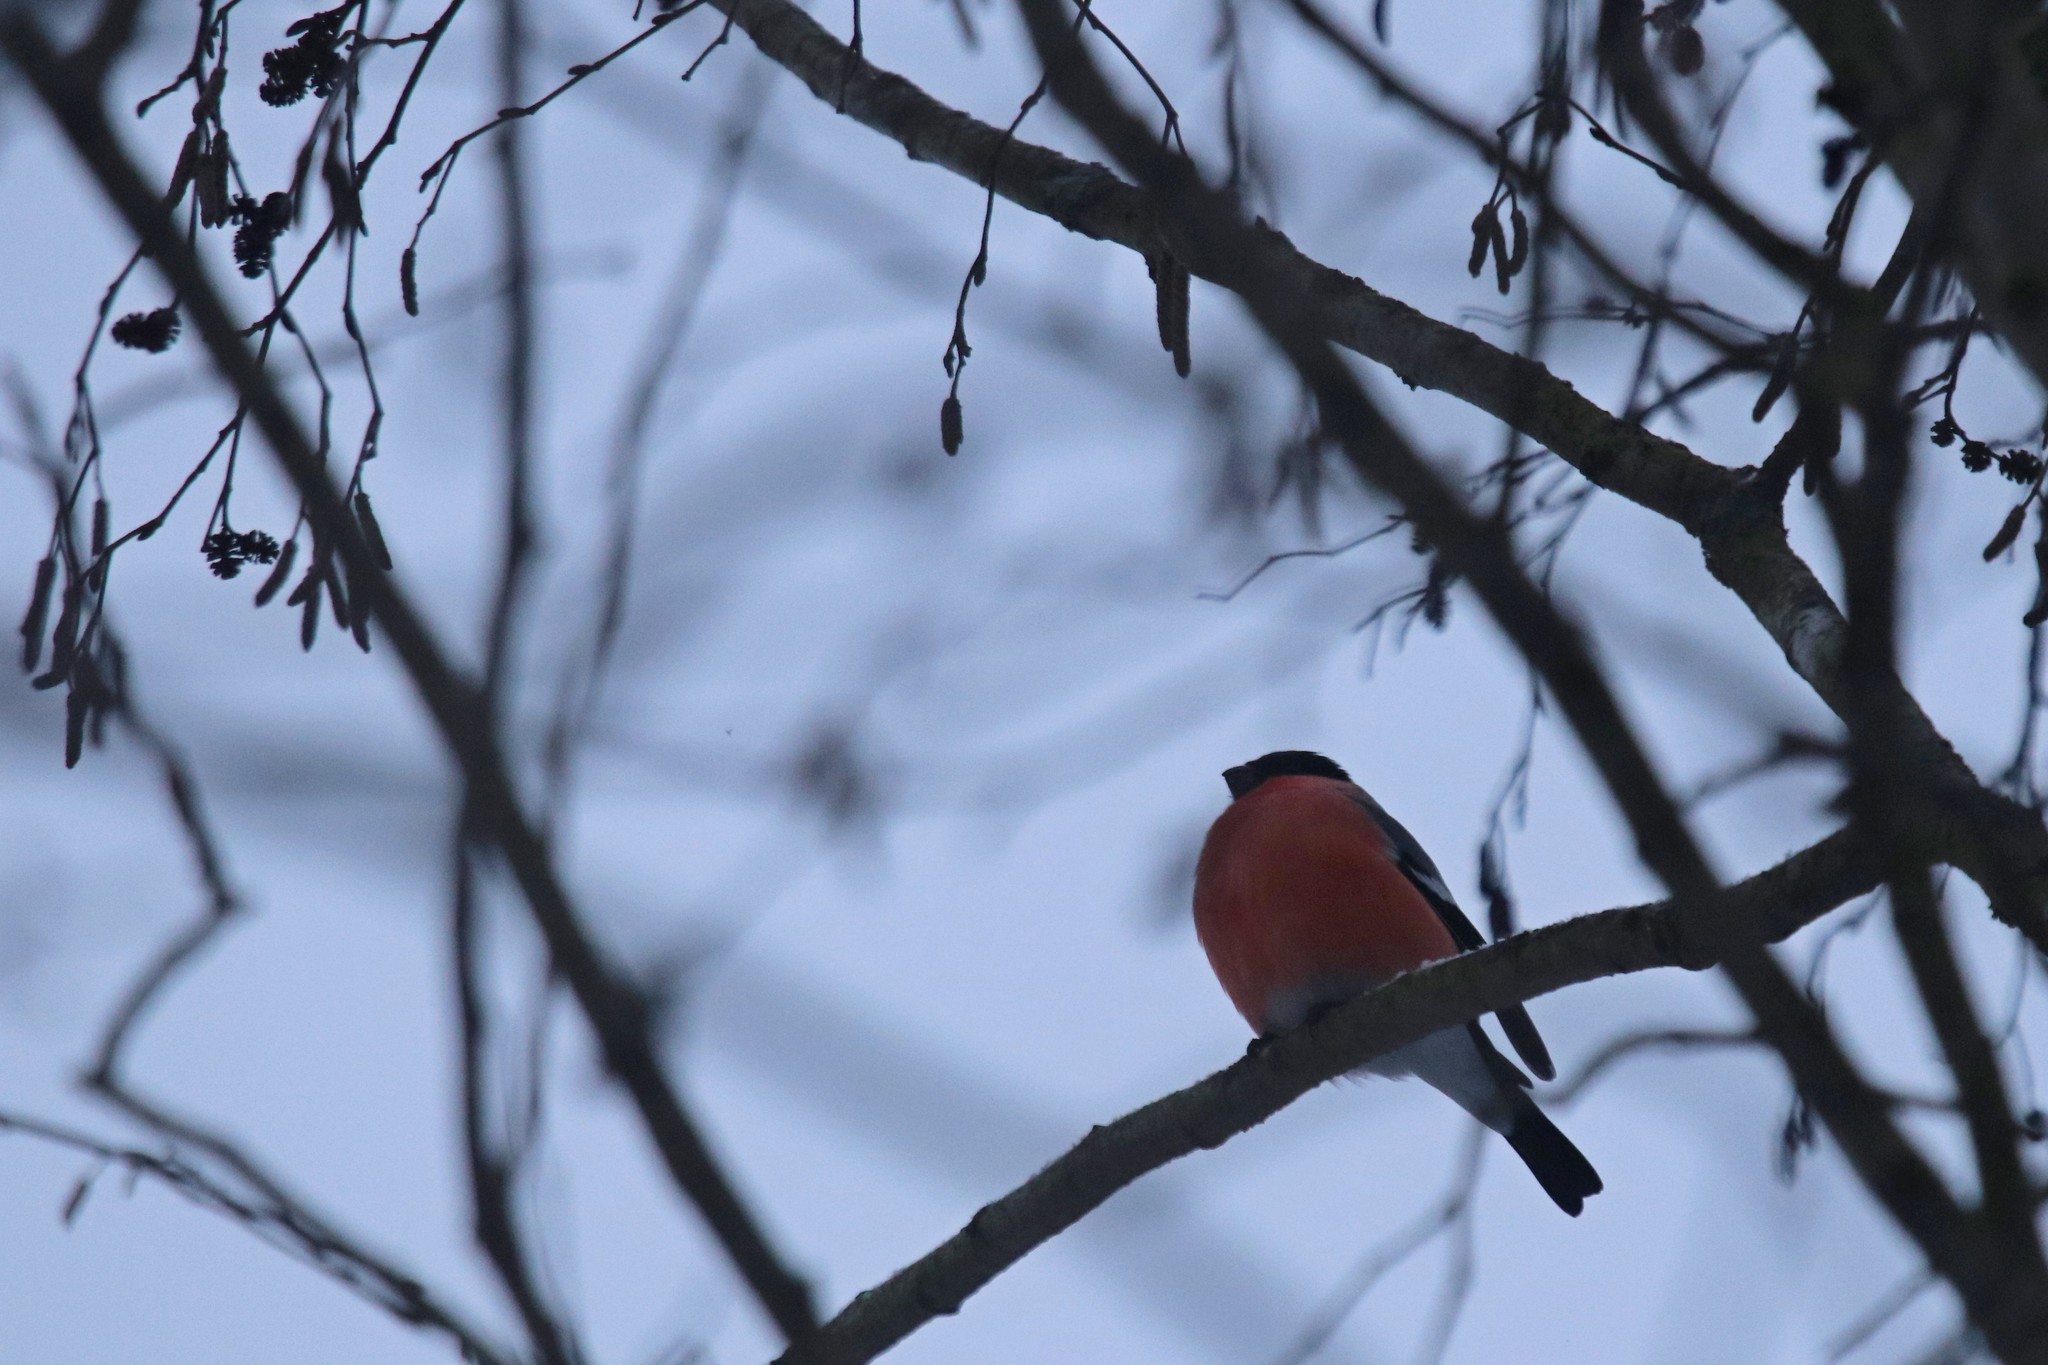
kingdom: Animalia
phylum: Chordata
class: Aves
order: Passeriformes
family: Fringillidae
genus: Pyrrhula
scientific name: Pyrrhula pyrrhula
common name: Eurasian bullfinch
